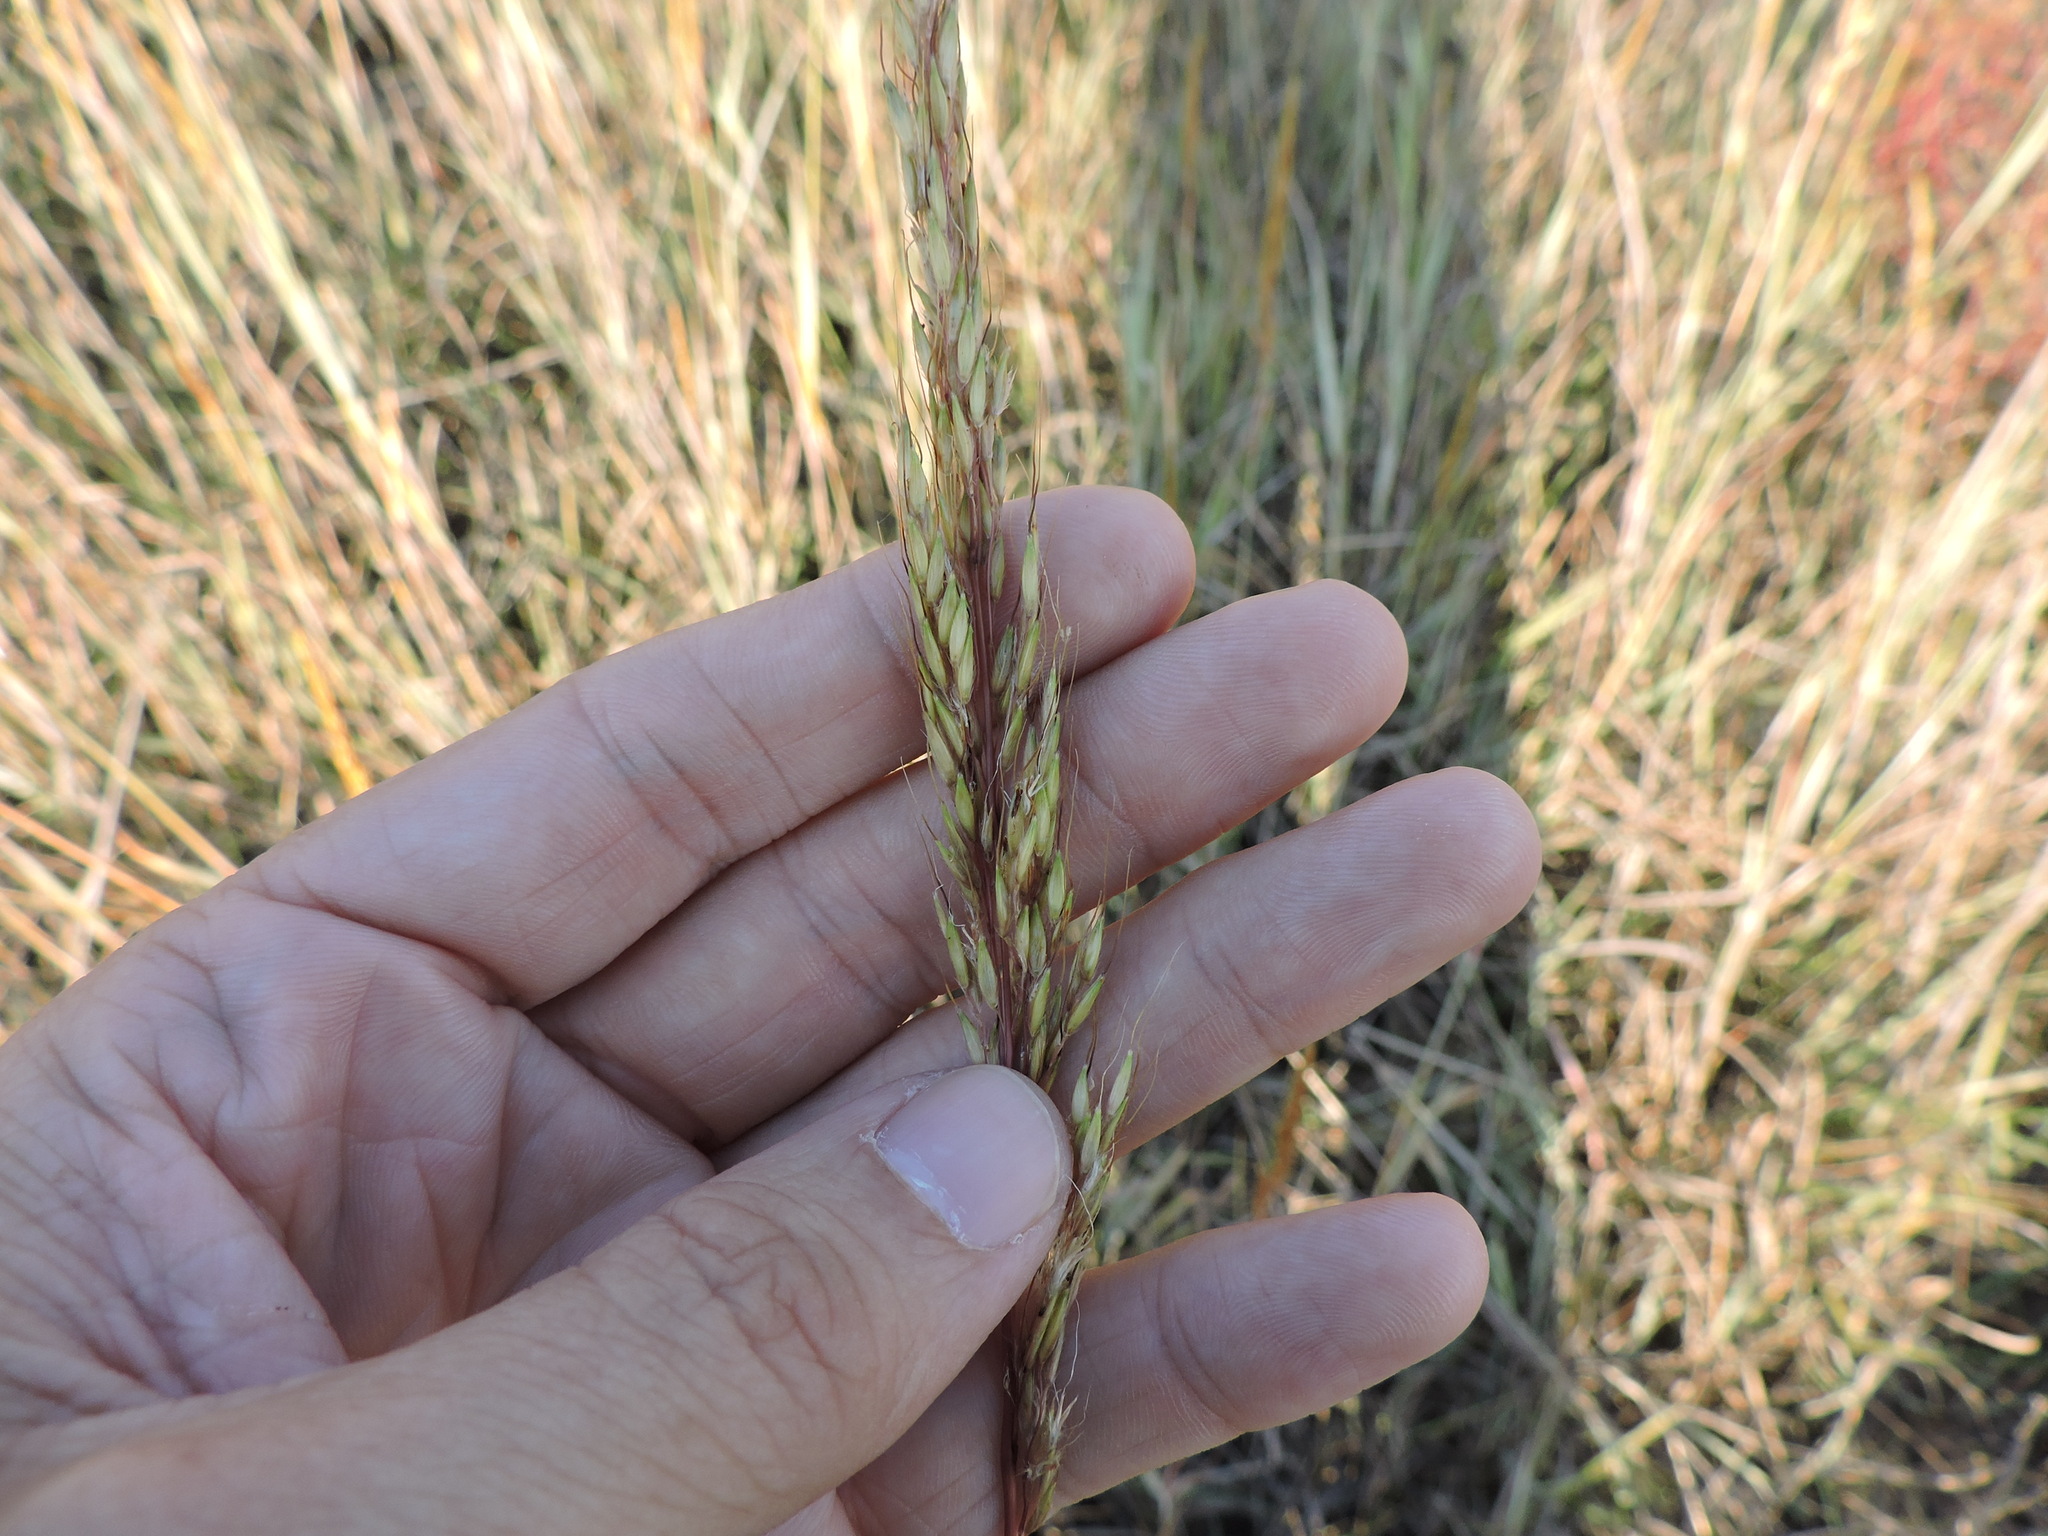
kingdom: Plantae
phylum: Tracheophyta
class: Liliopsida
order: Poales
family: Poaceae
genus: Sorghastrum
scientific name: Sorghastrum nutans
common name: Indian grass
